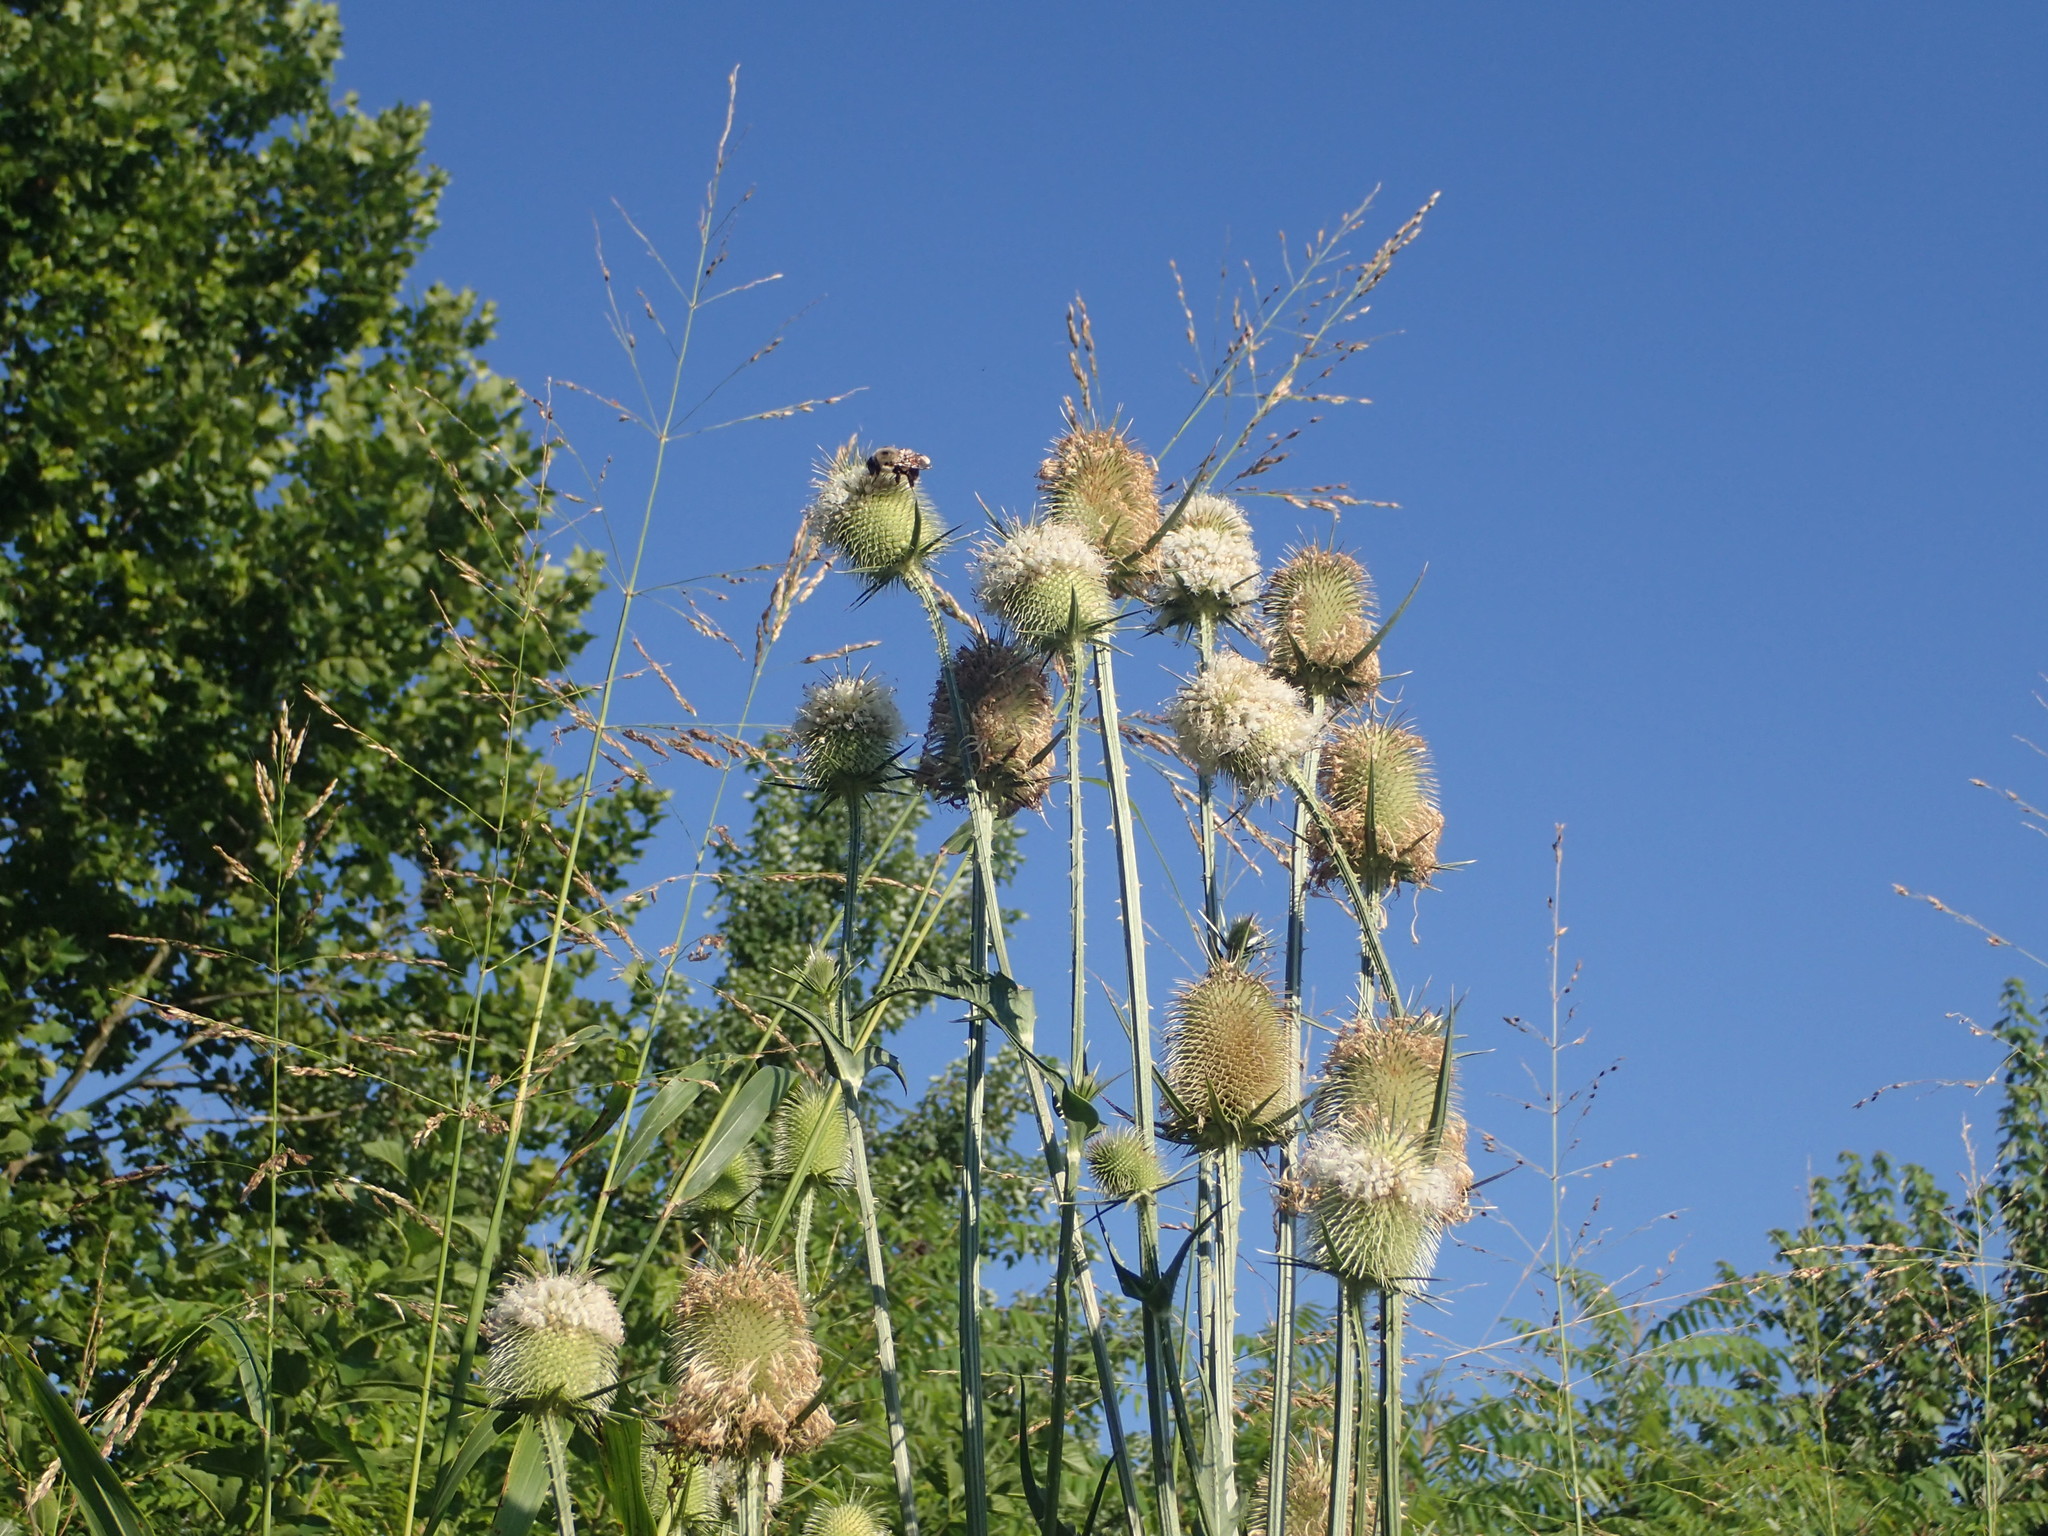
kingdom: Plantae
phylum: Tracheophyta
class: Magnoliopsida
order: Dipsacales
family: Caprifoliaceae
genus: Dipsacus
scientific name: Dipsacus laciniatus
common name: Cut-leaved teasel
